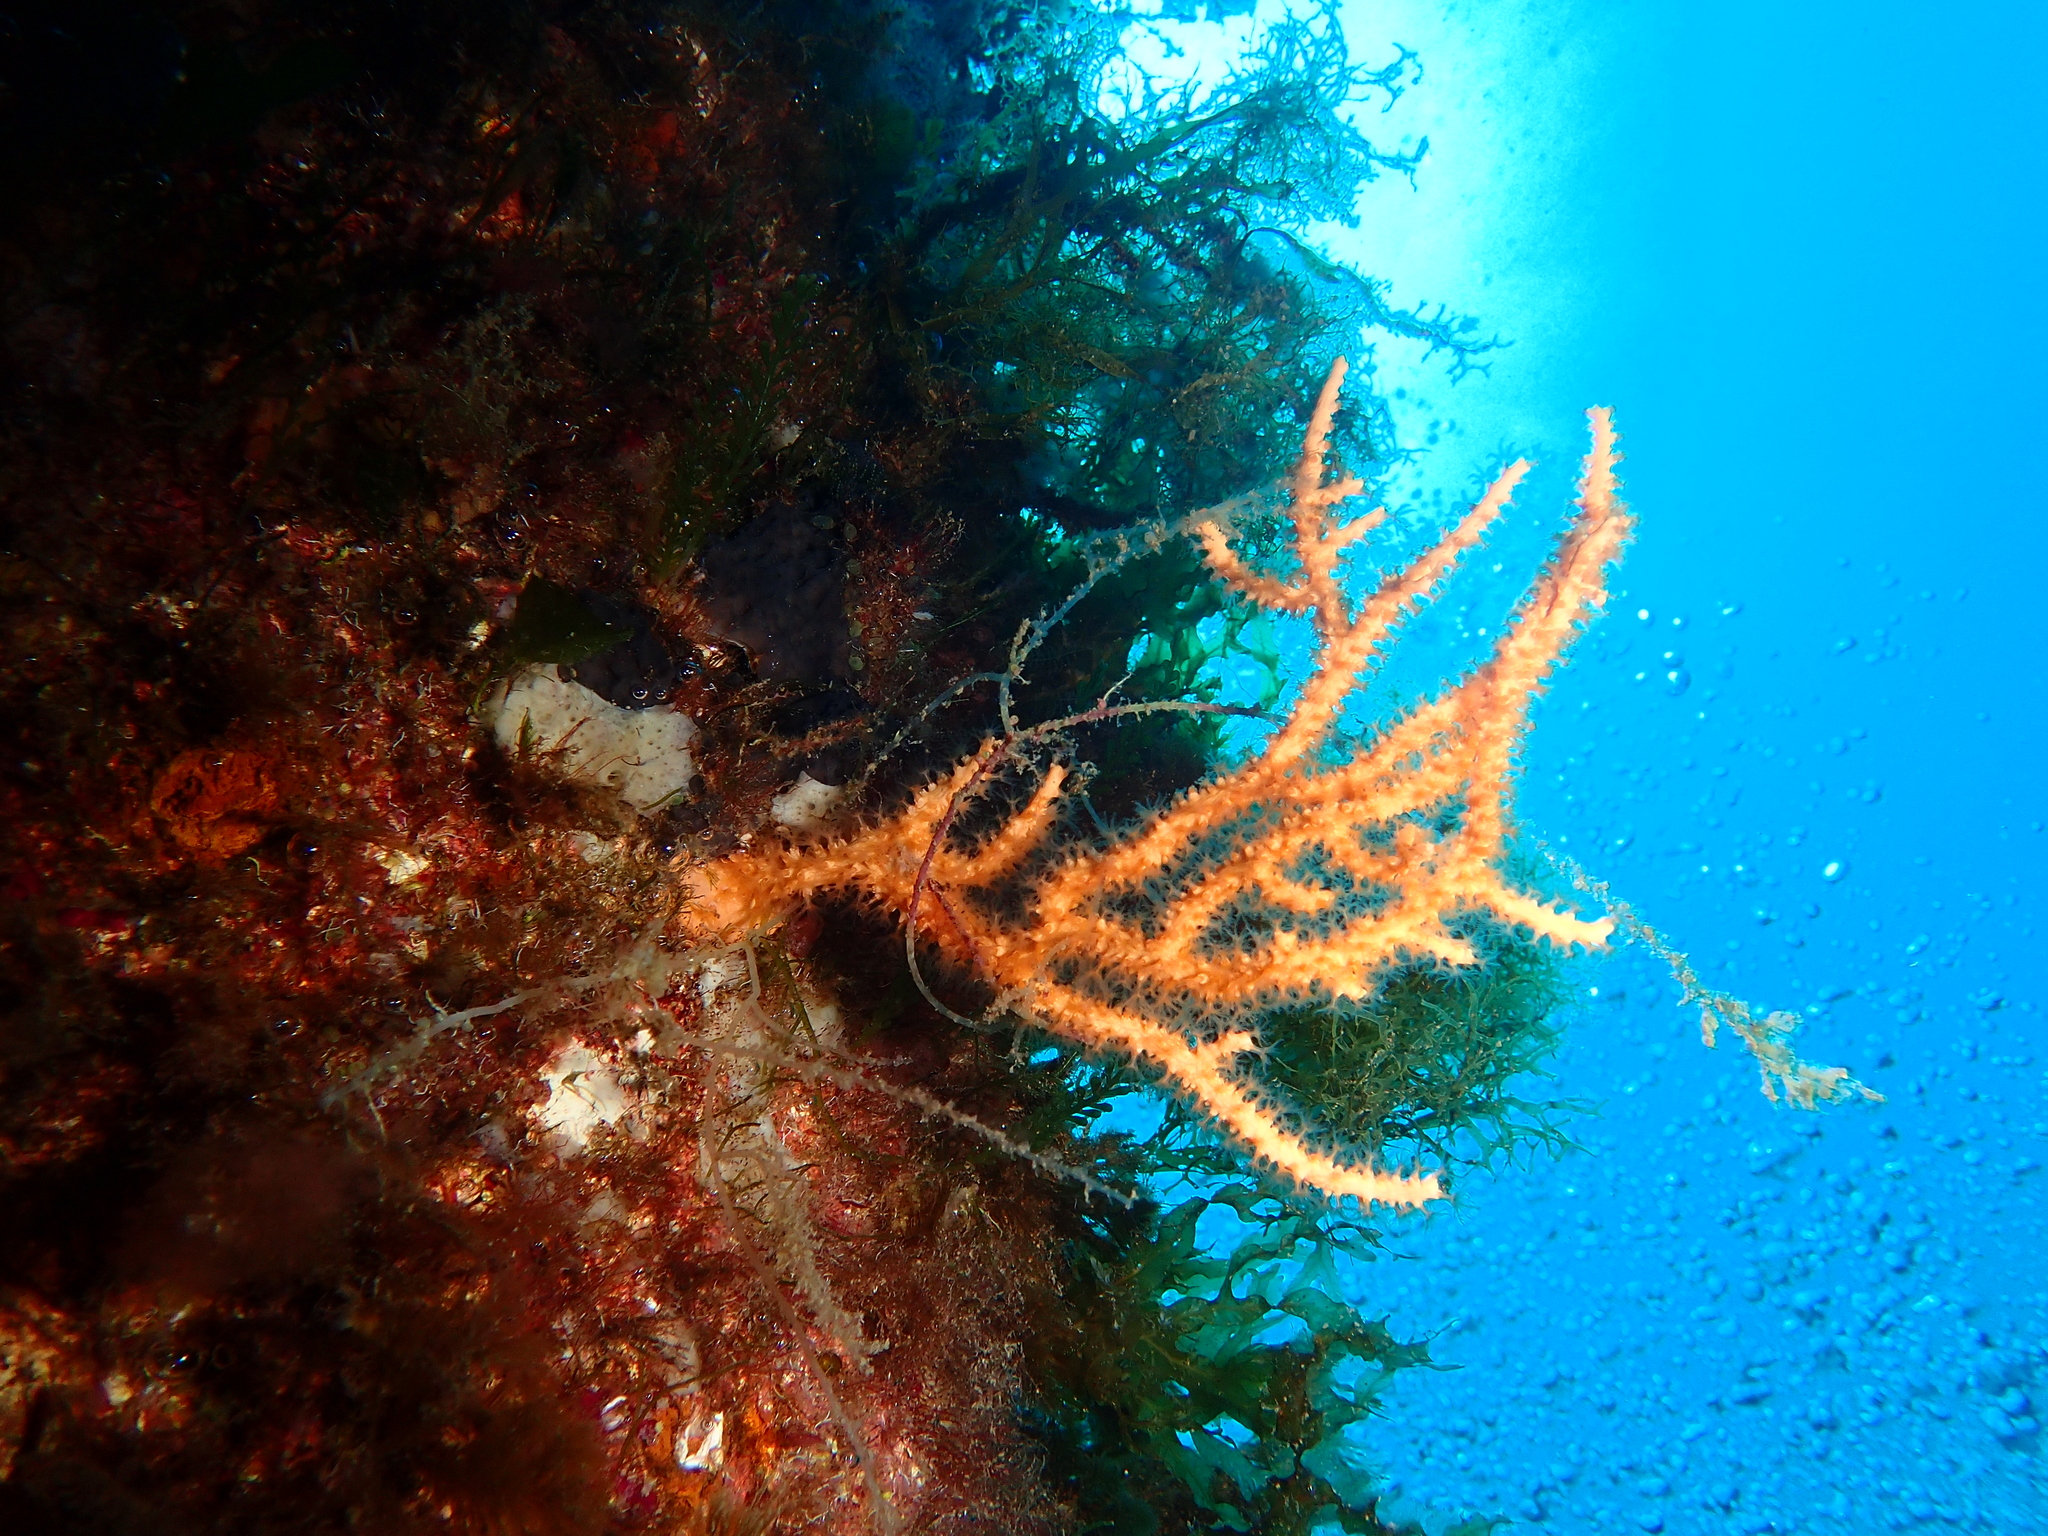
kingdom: Animalia
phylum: Cnidaria
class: Anthozoa
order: Malacalcyonacea
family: Eunicellidae
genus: Eunicella
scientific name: Eunicella cavolini
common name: Yellow gorgonian
